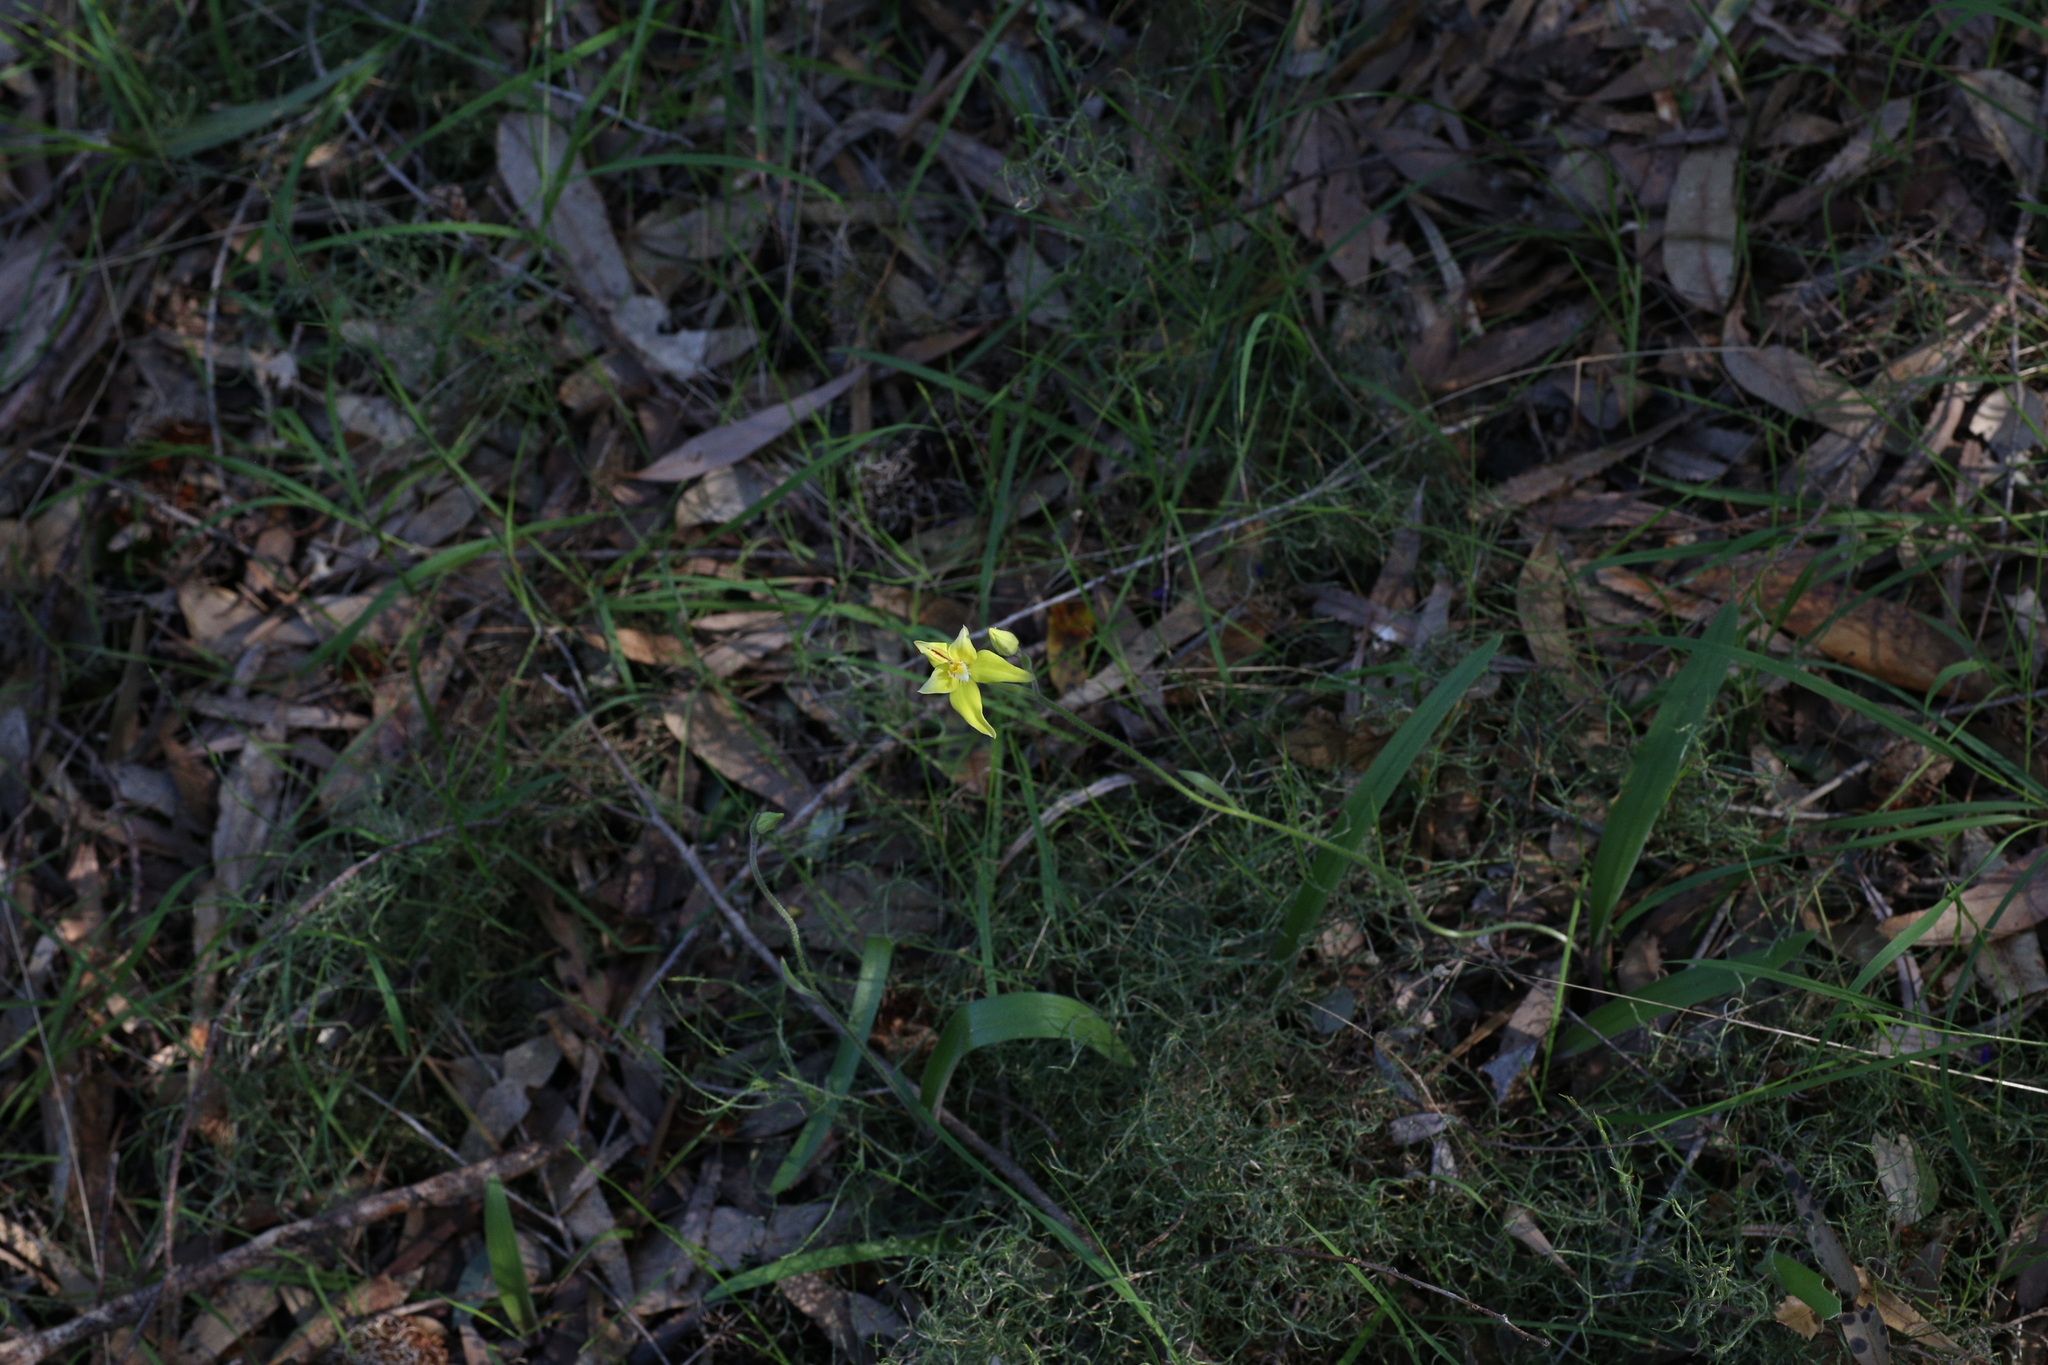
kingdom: Plantae
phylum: Tracheophyta
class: Liliopsida
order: Asparagales
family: Orchidaceae
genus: Caladenia
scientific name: Caladenia flava
